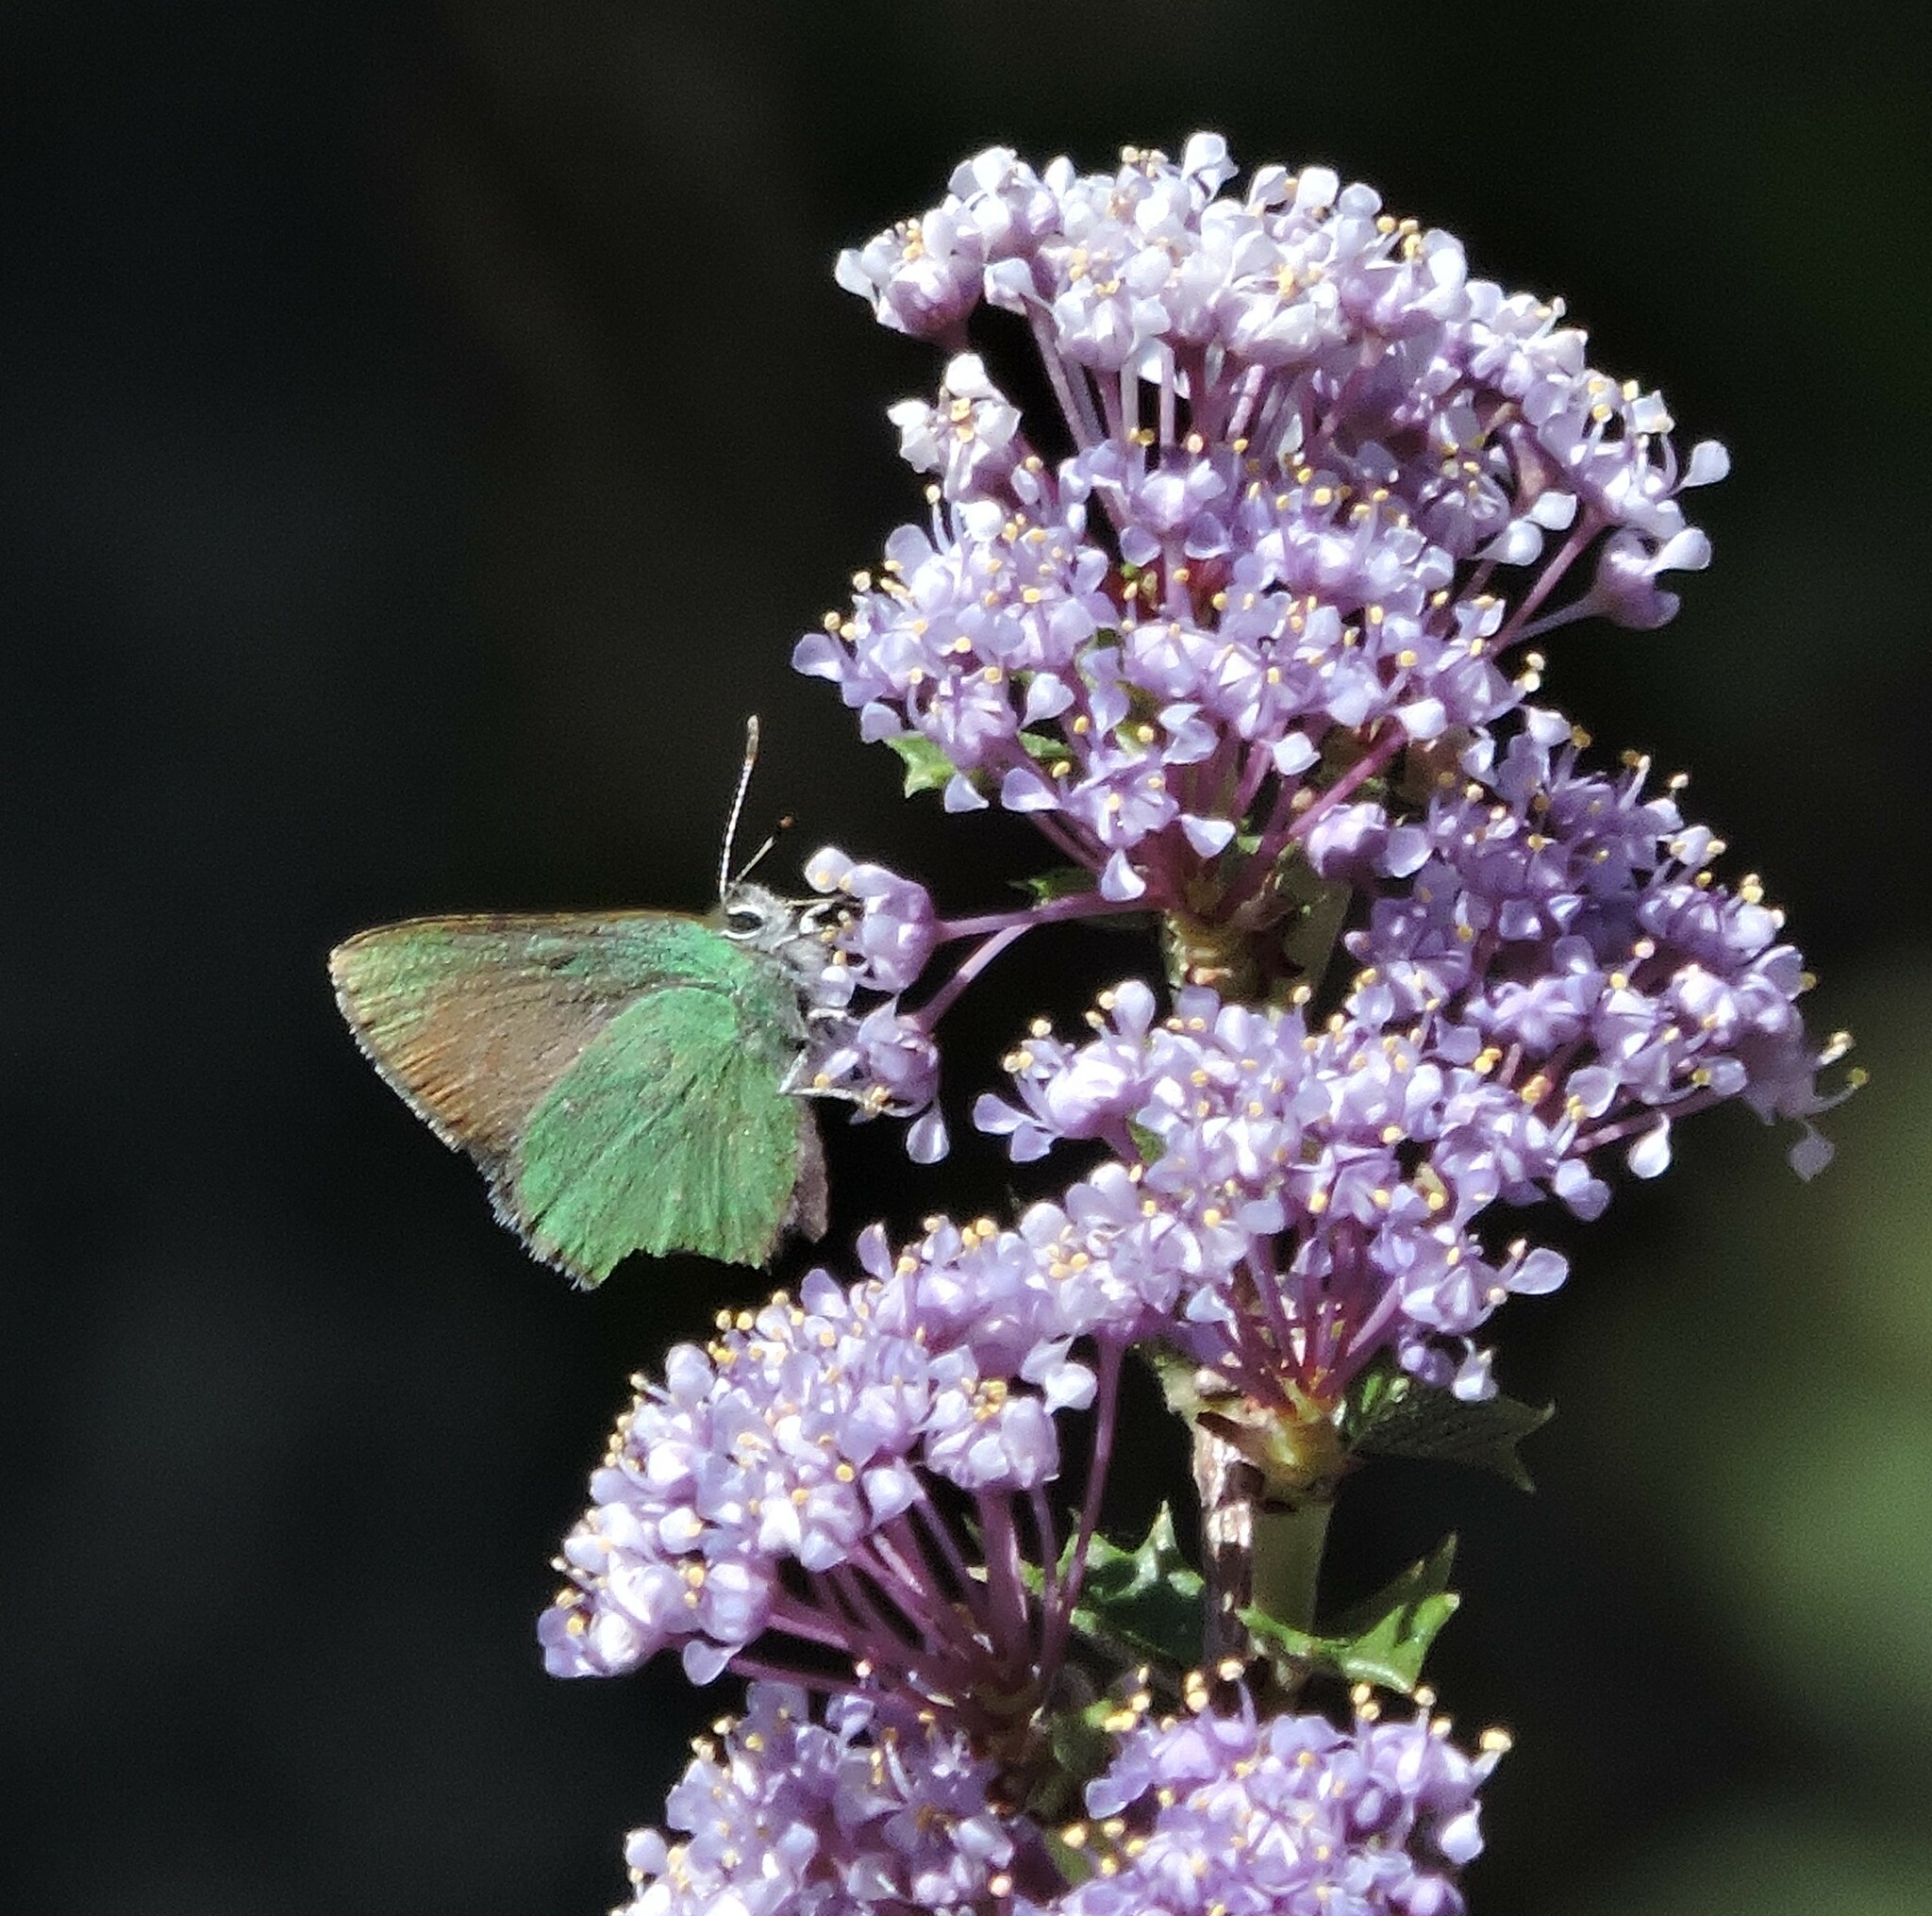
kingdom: Animalia
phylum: Arthropoda
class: Insecta
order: Lepidoptera
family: Lycaenidae
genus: Callophrys
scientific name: Callophrys dumetorum
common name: Bramble hairstreak
